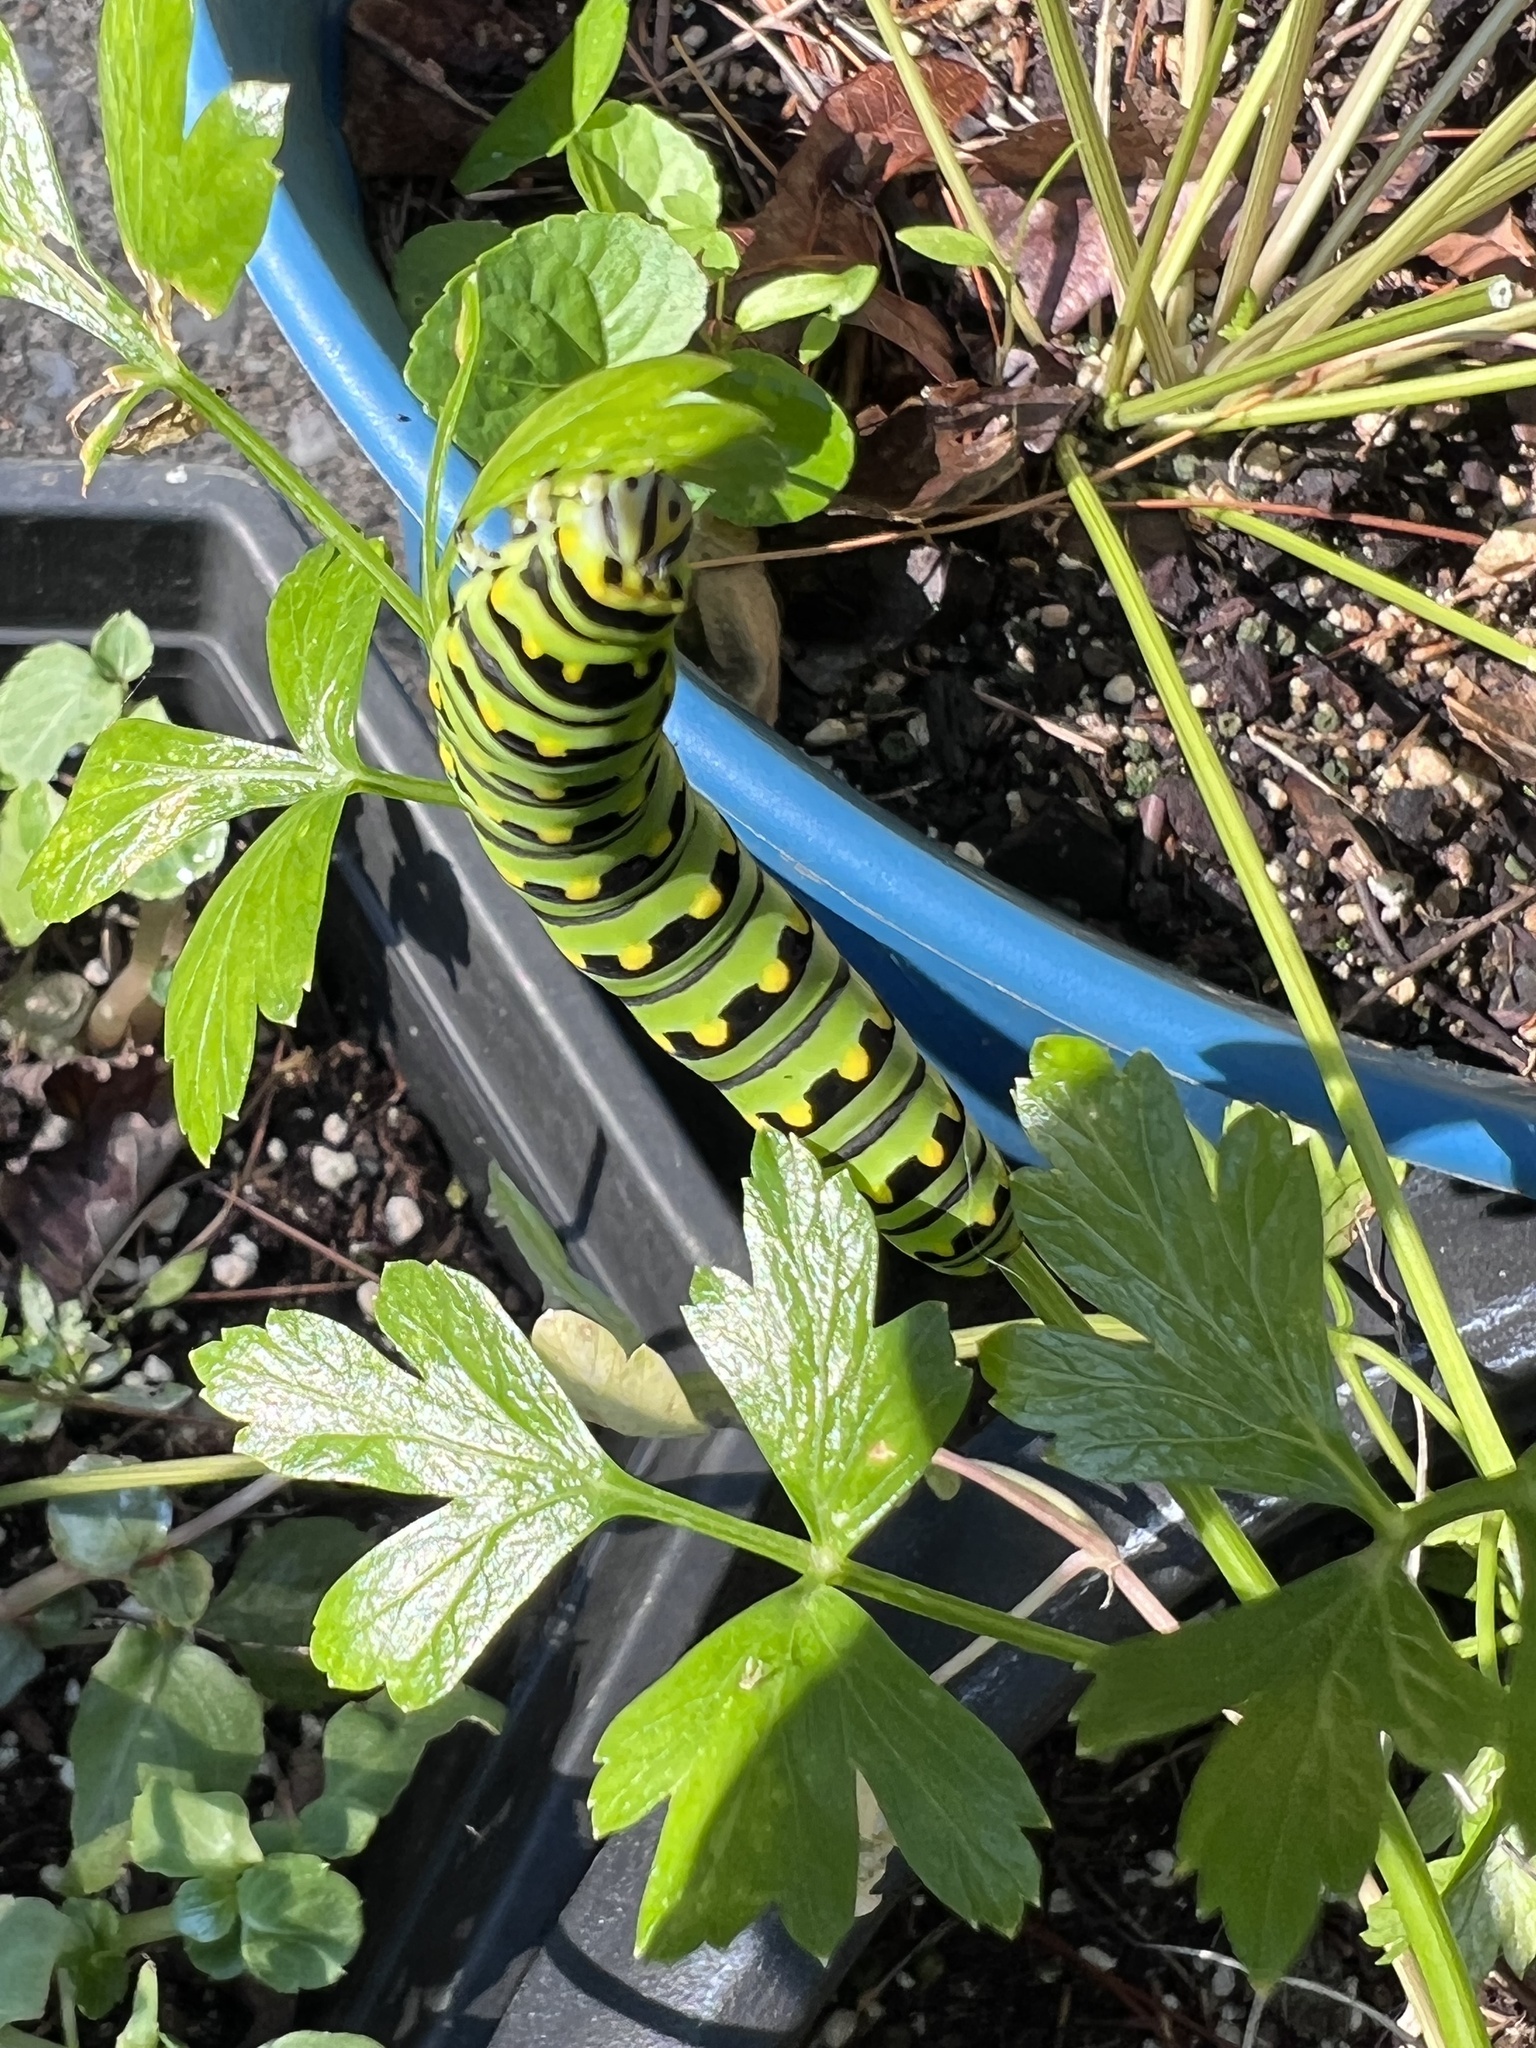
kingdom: Animalia
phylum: Arthropoda
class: Insecta
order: Lepidoptera
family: Papilionidae
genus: Papilio
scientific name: Papilio polyxenes
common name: Black swallowtail
